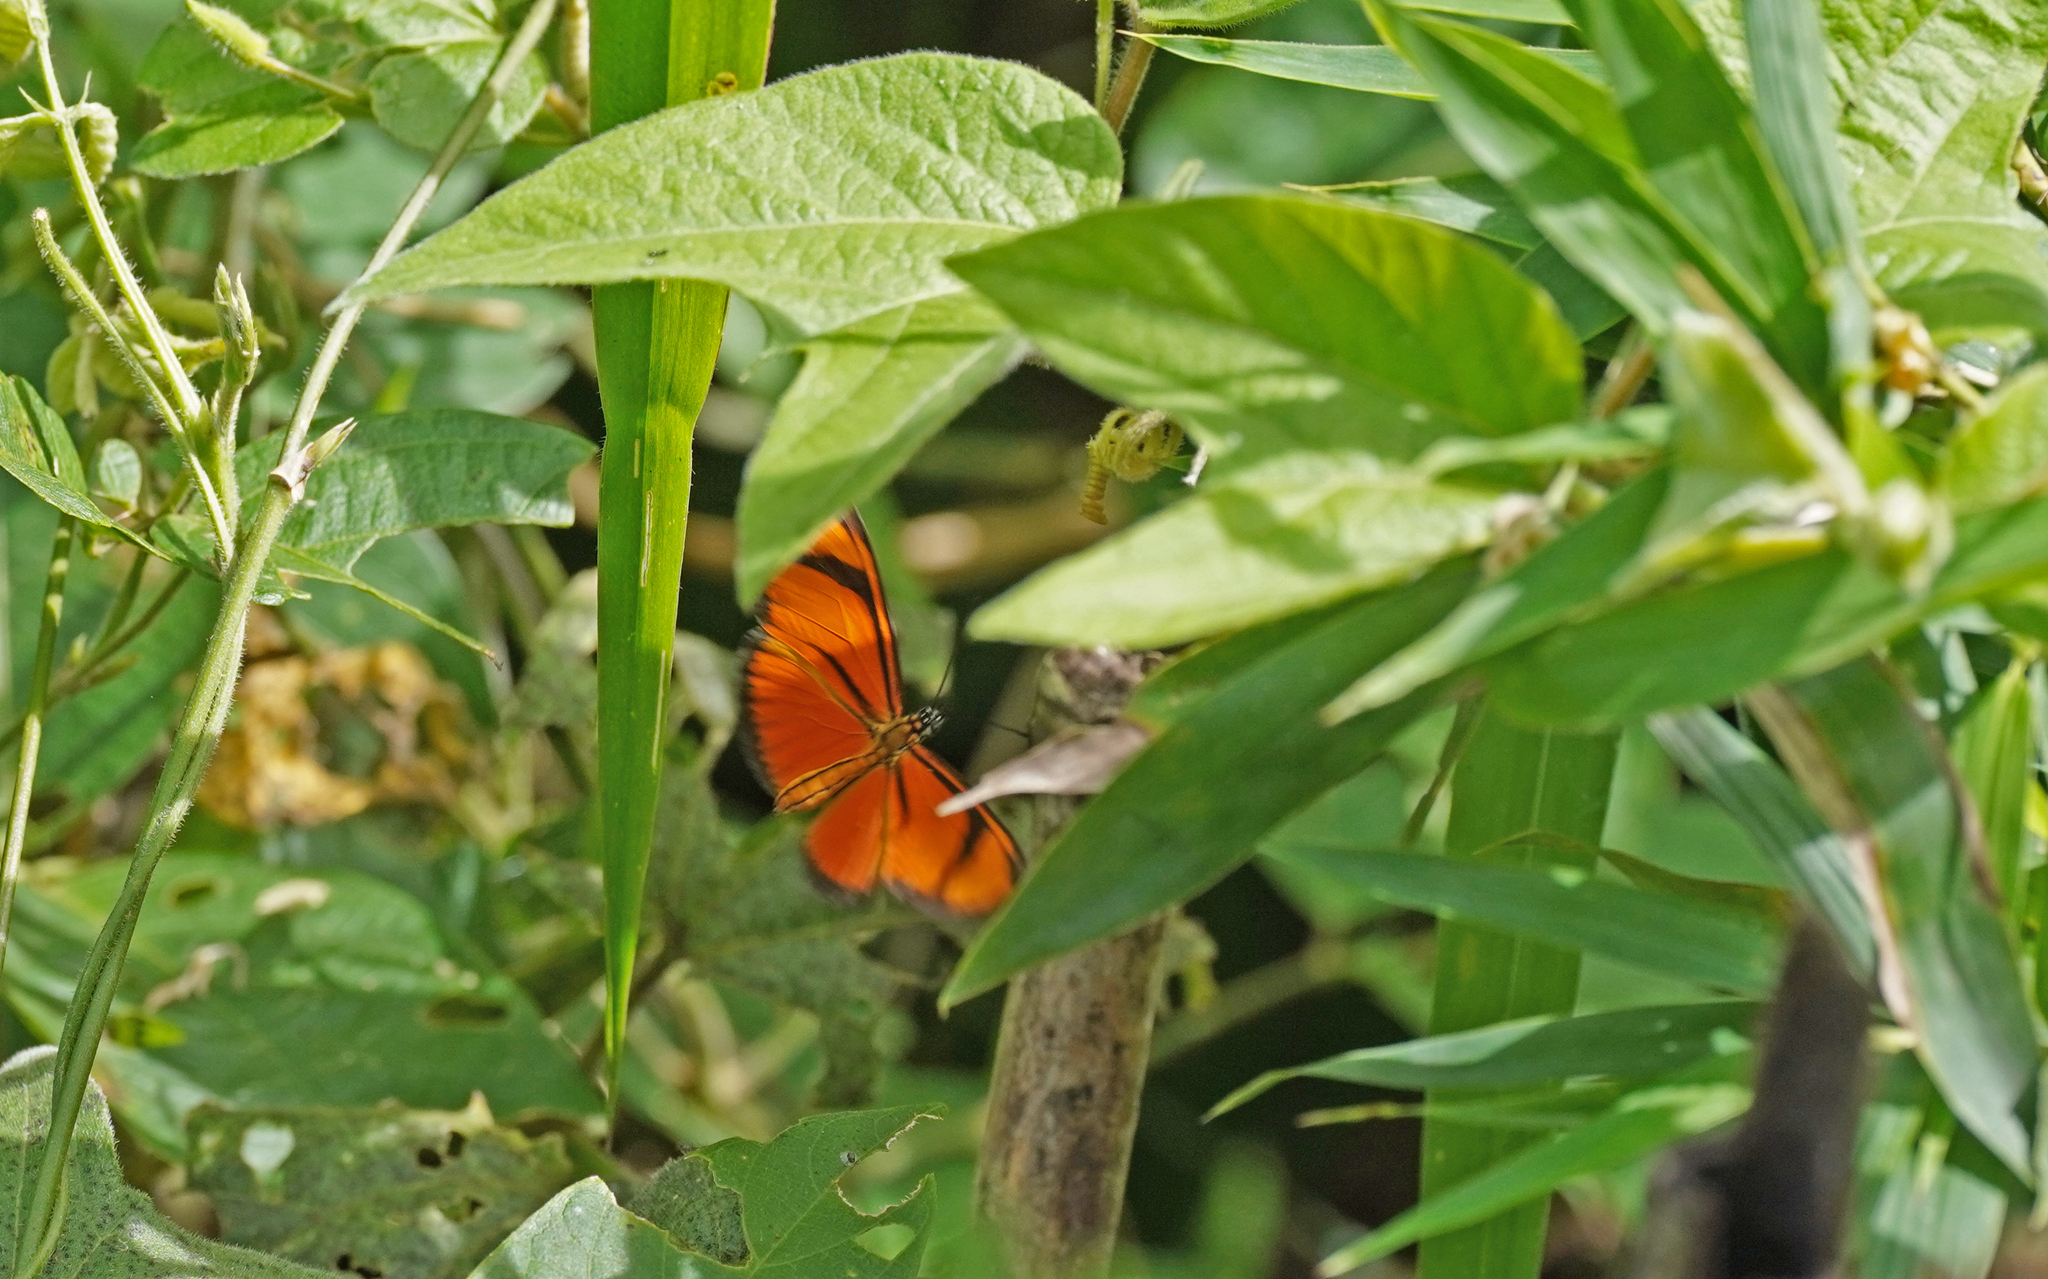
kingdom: Animalia
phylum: Arthropoda
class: Insecta
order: Lepidoptera
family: Nymphalidae
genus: Heliconius
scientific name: Heliconius aliphera
